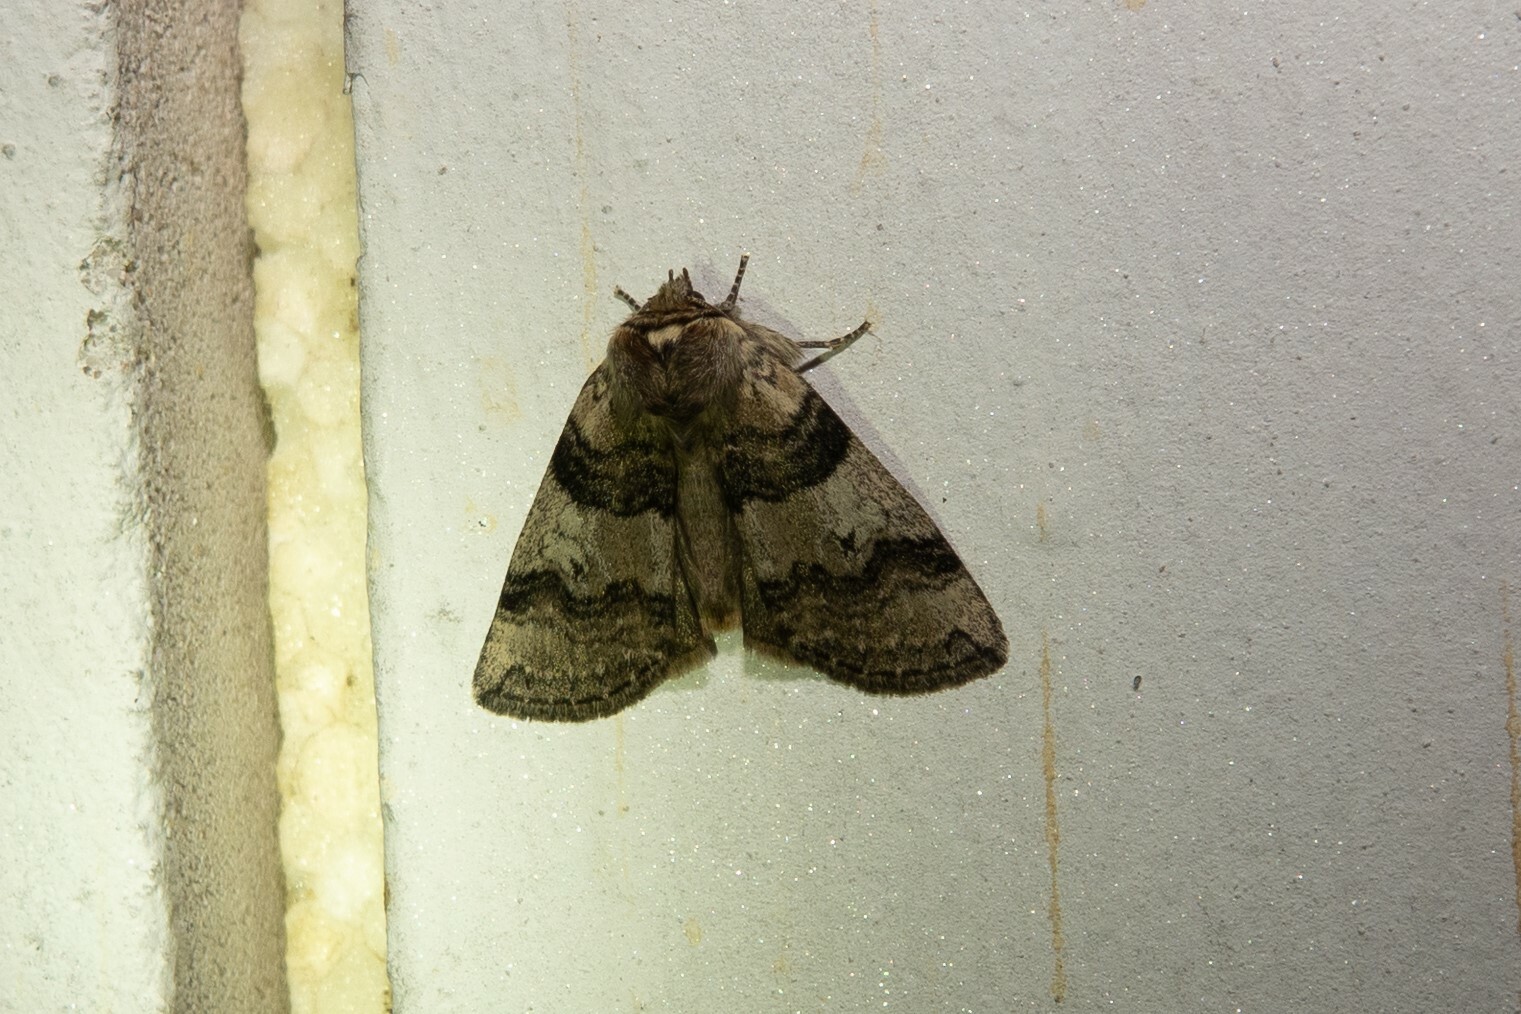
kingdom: Animalia
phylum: Arthropoda
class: Insecta
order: Lepidoptera
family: Drepanidae
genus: Tethea
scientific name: Tethea or
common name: Poplar lutestring
